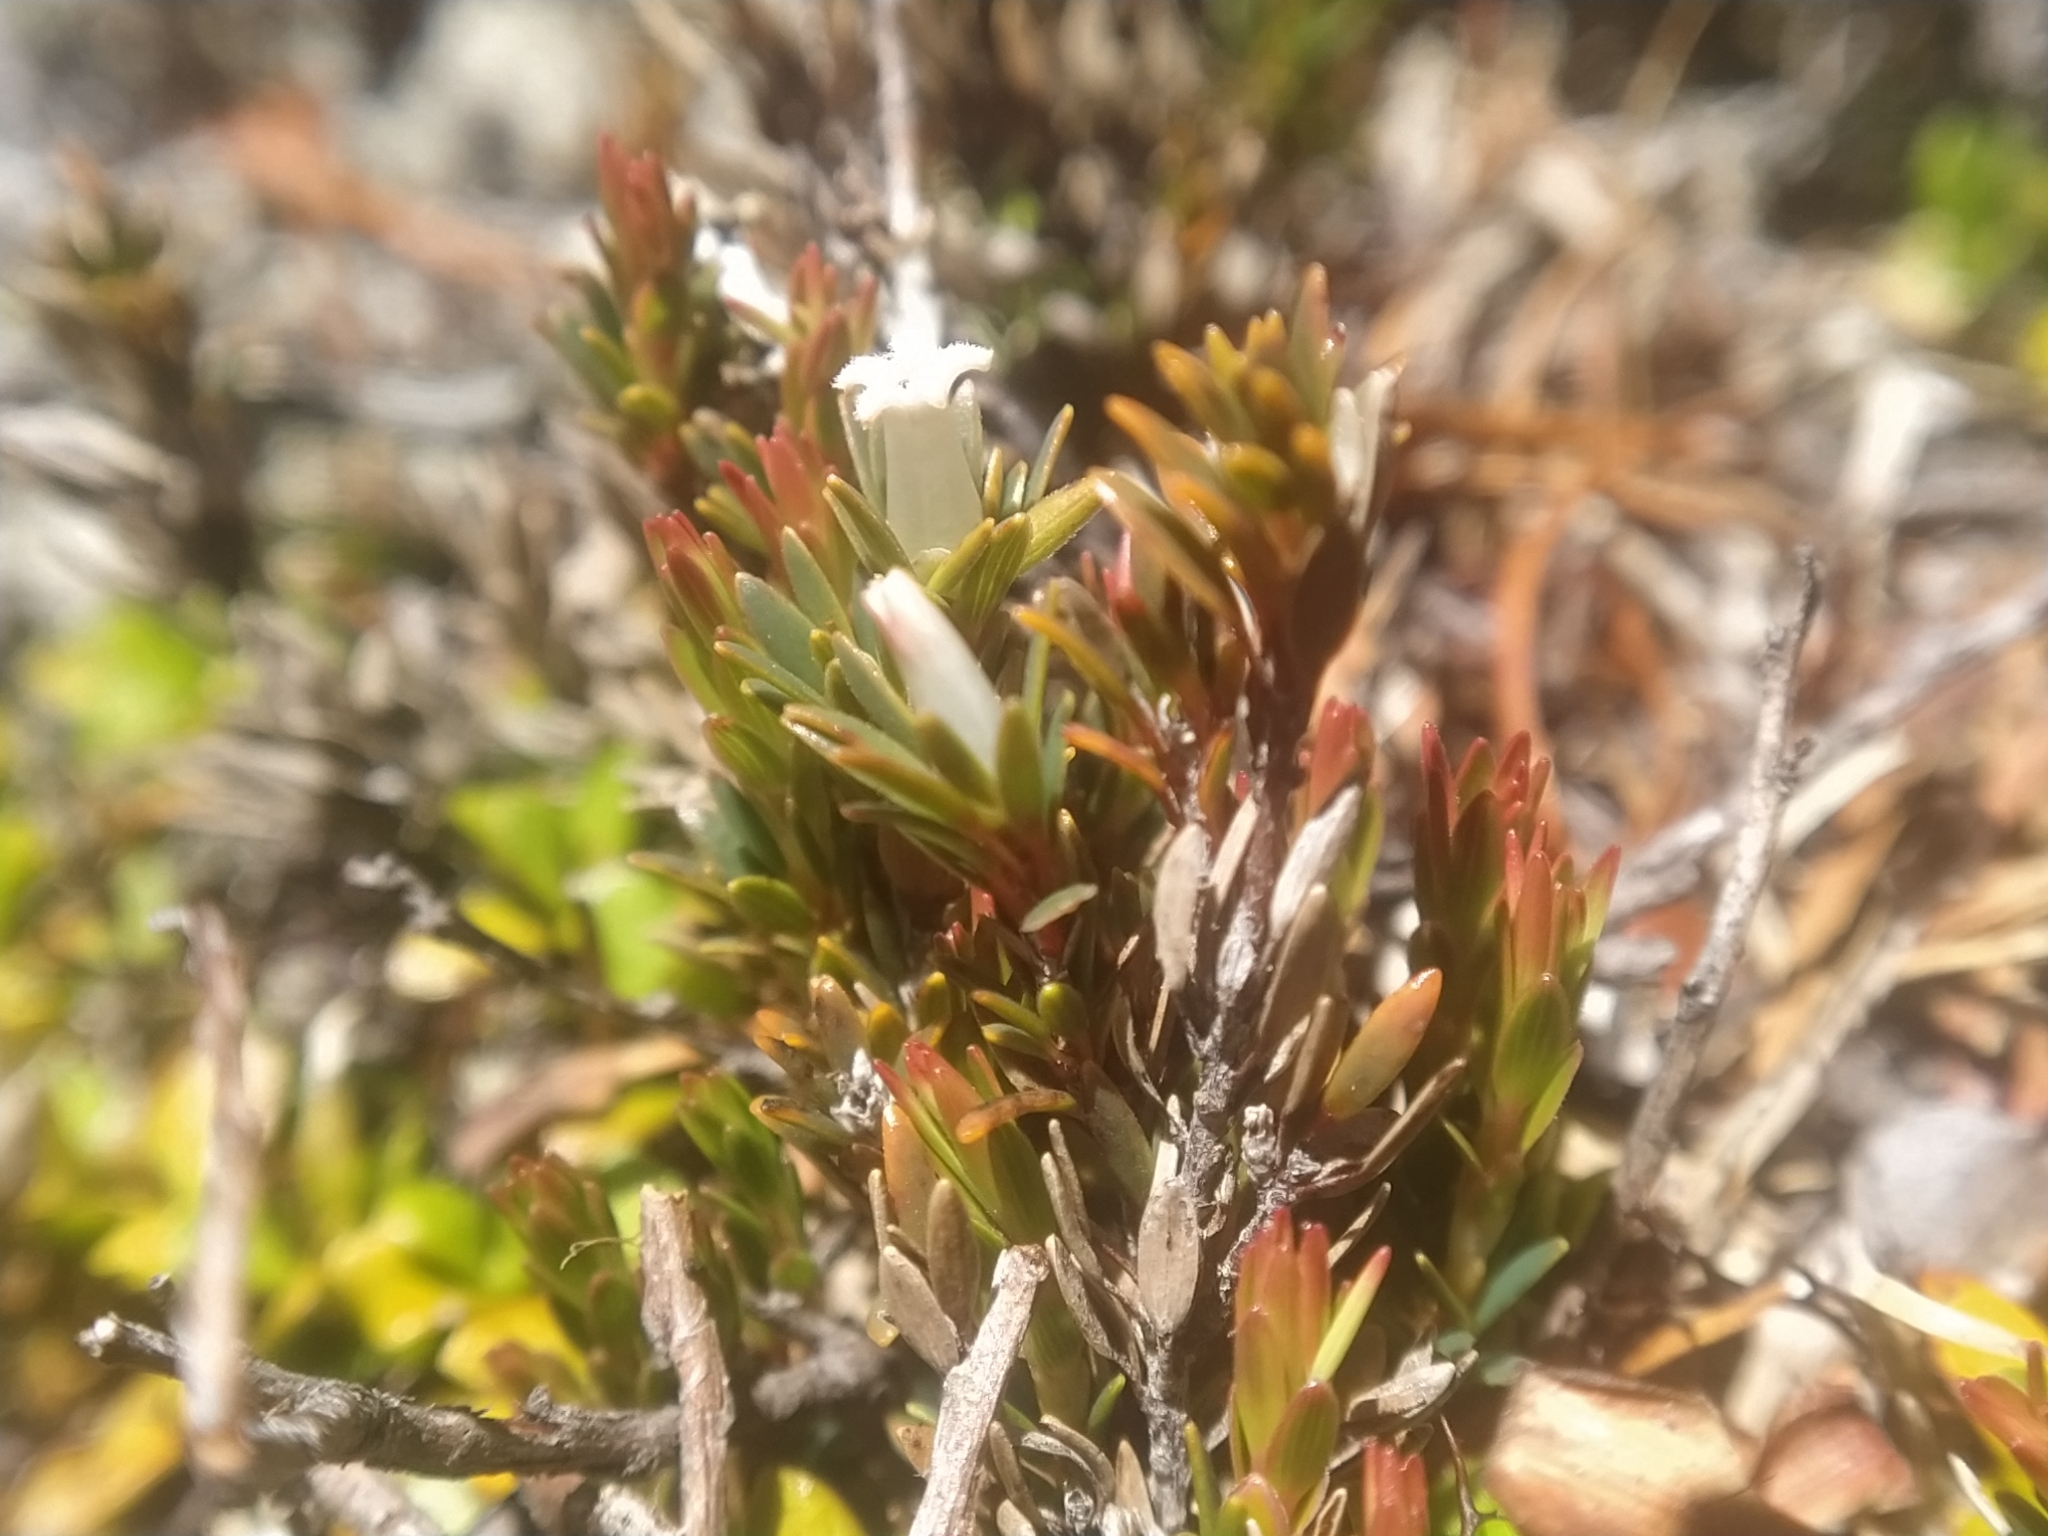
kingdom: Plantae
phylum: Tracheophyta
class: Magnoliopsida
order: Ericales
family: Ericaceae
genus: Pentachondra
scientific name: Pentachondra pumila
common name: Carpet-heath
